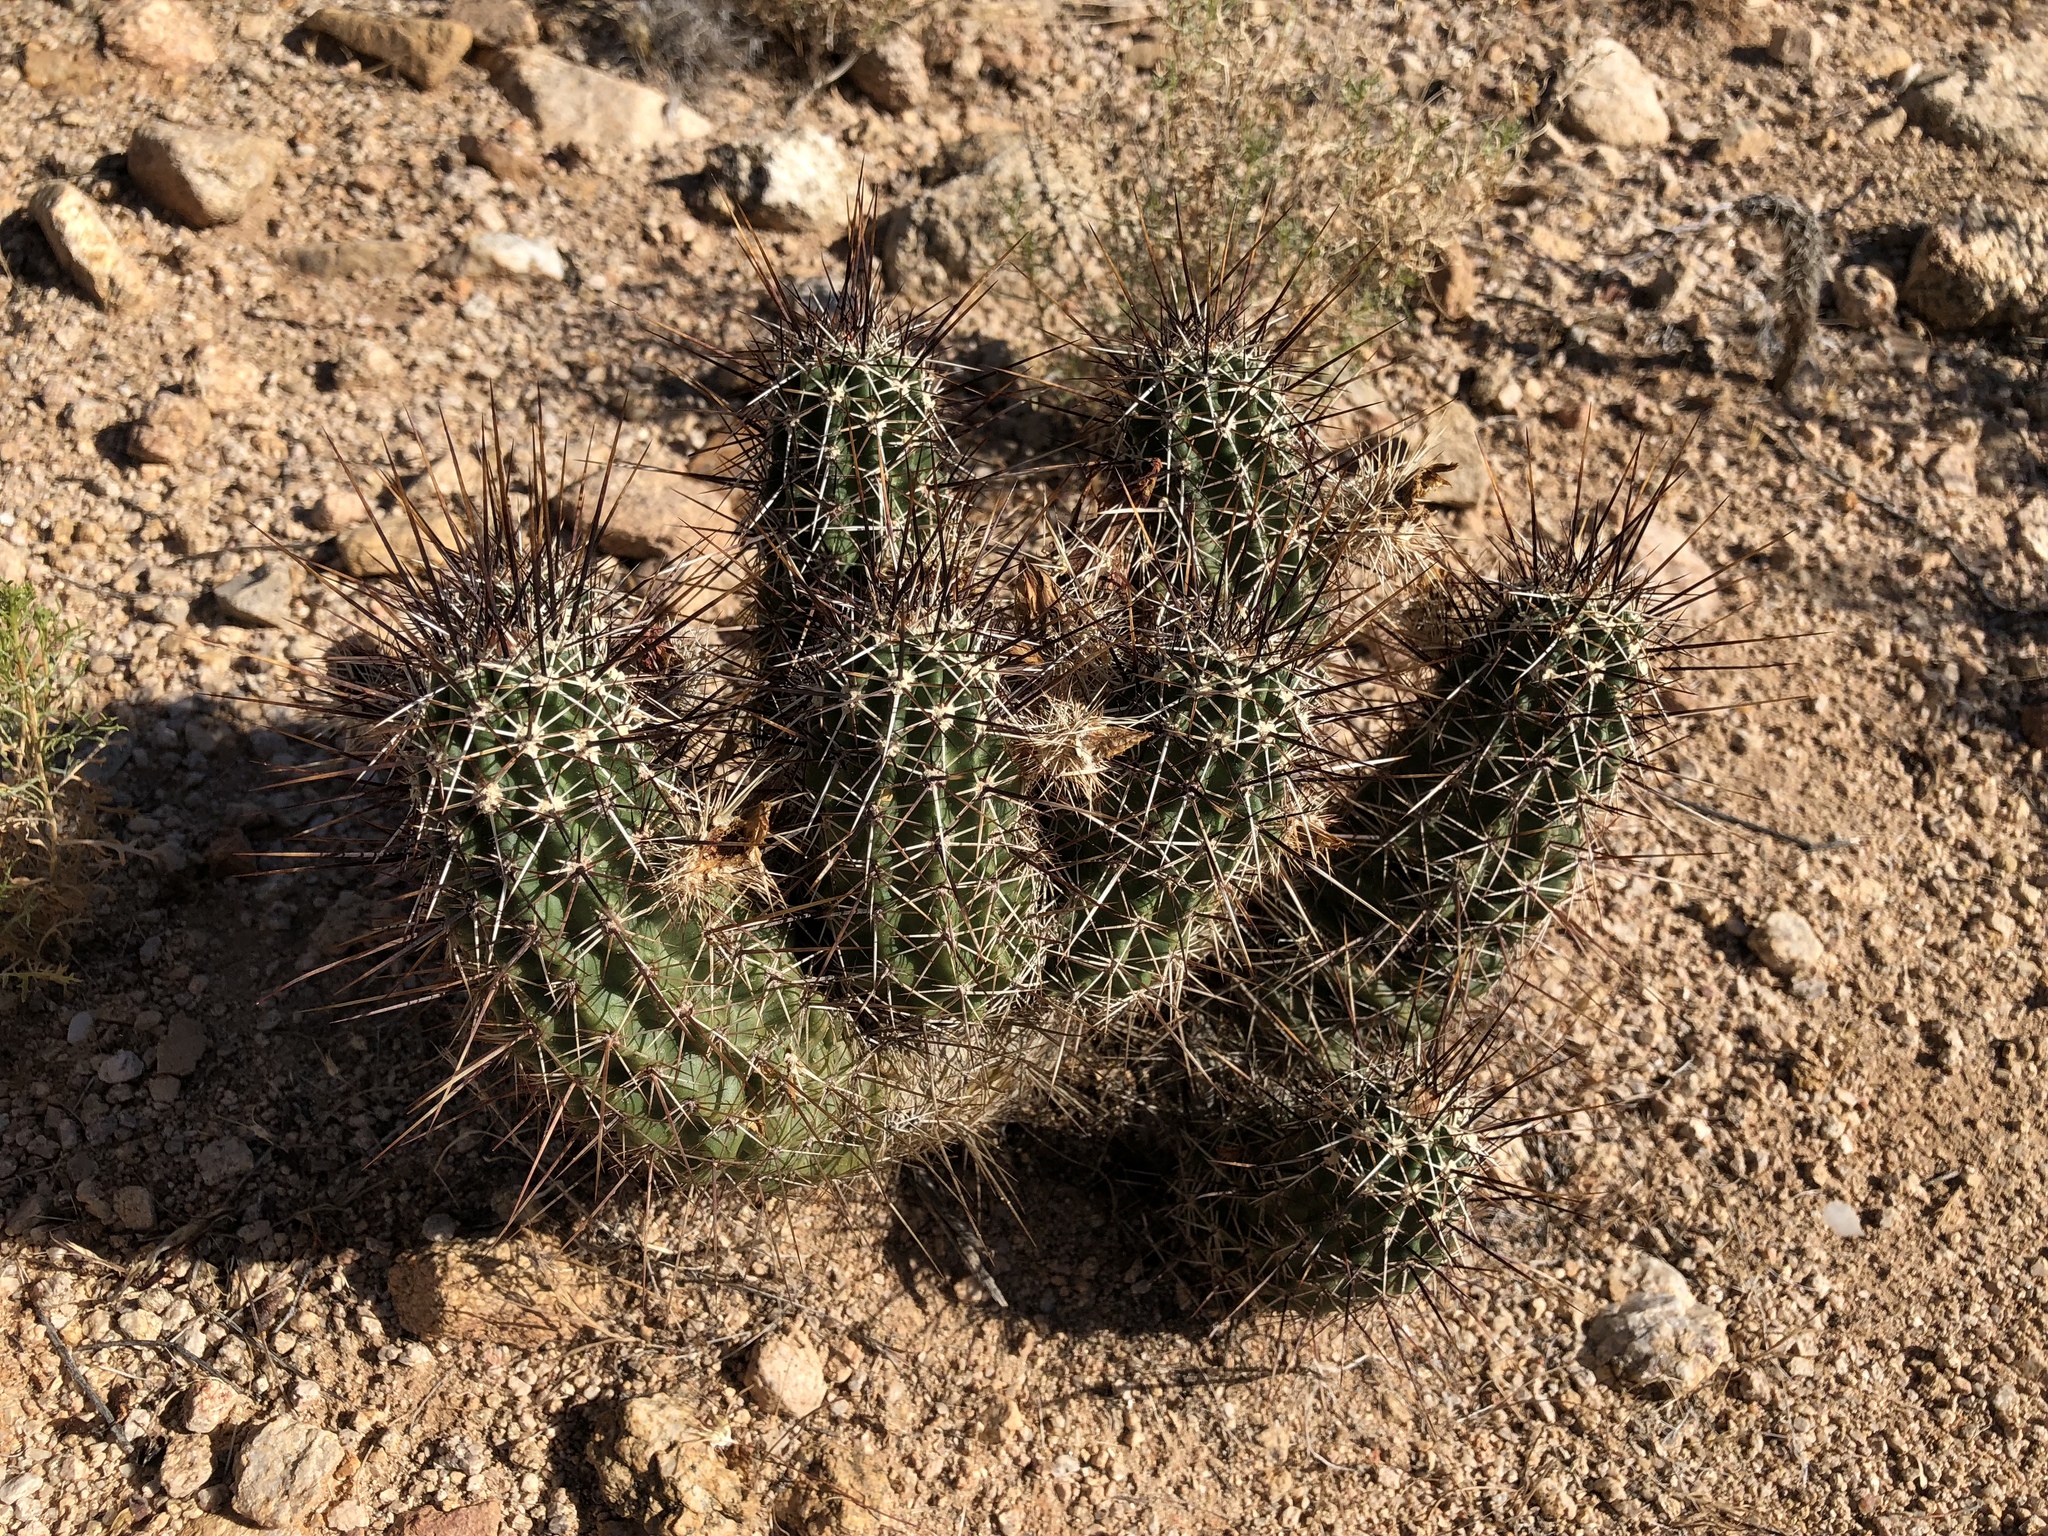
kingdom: Plantae
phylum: Tracheophyta
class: Magnoliopsida
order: Caryophyllales
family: Cactaceae
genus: Echinocereus
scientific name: Echinocereus fasciculatus
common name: Bundle hedgehog
